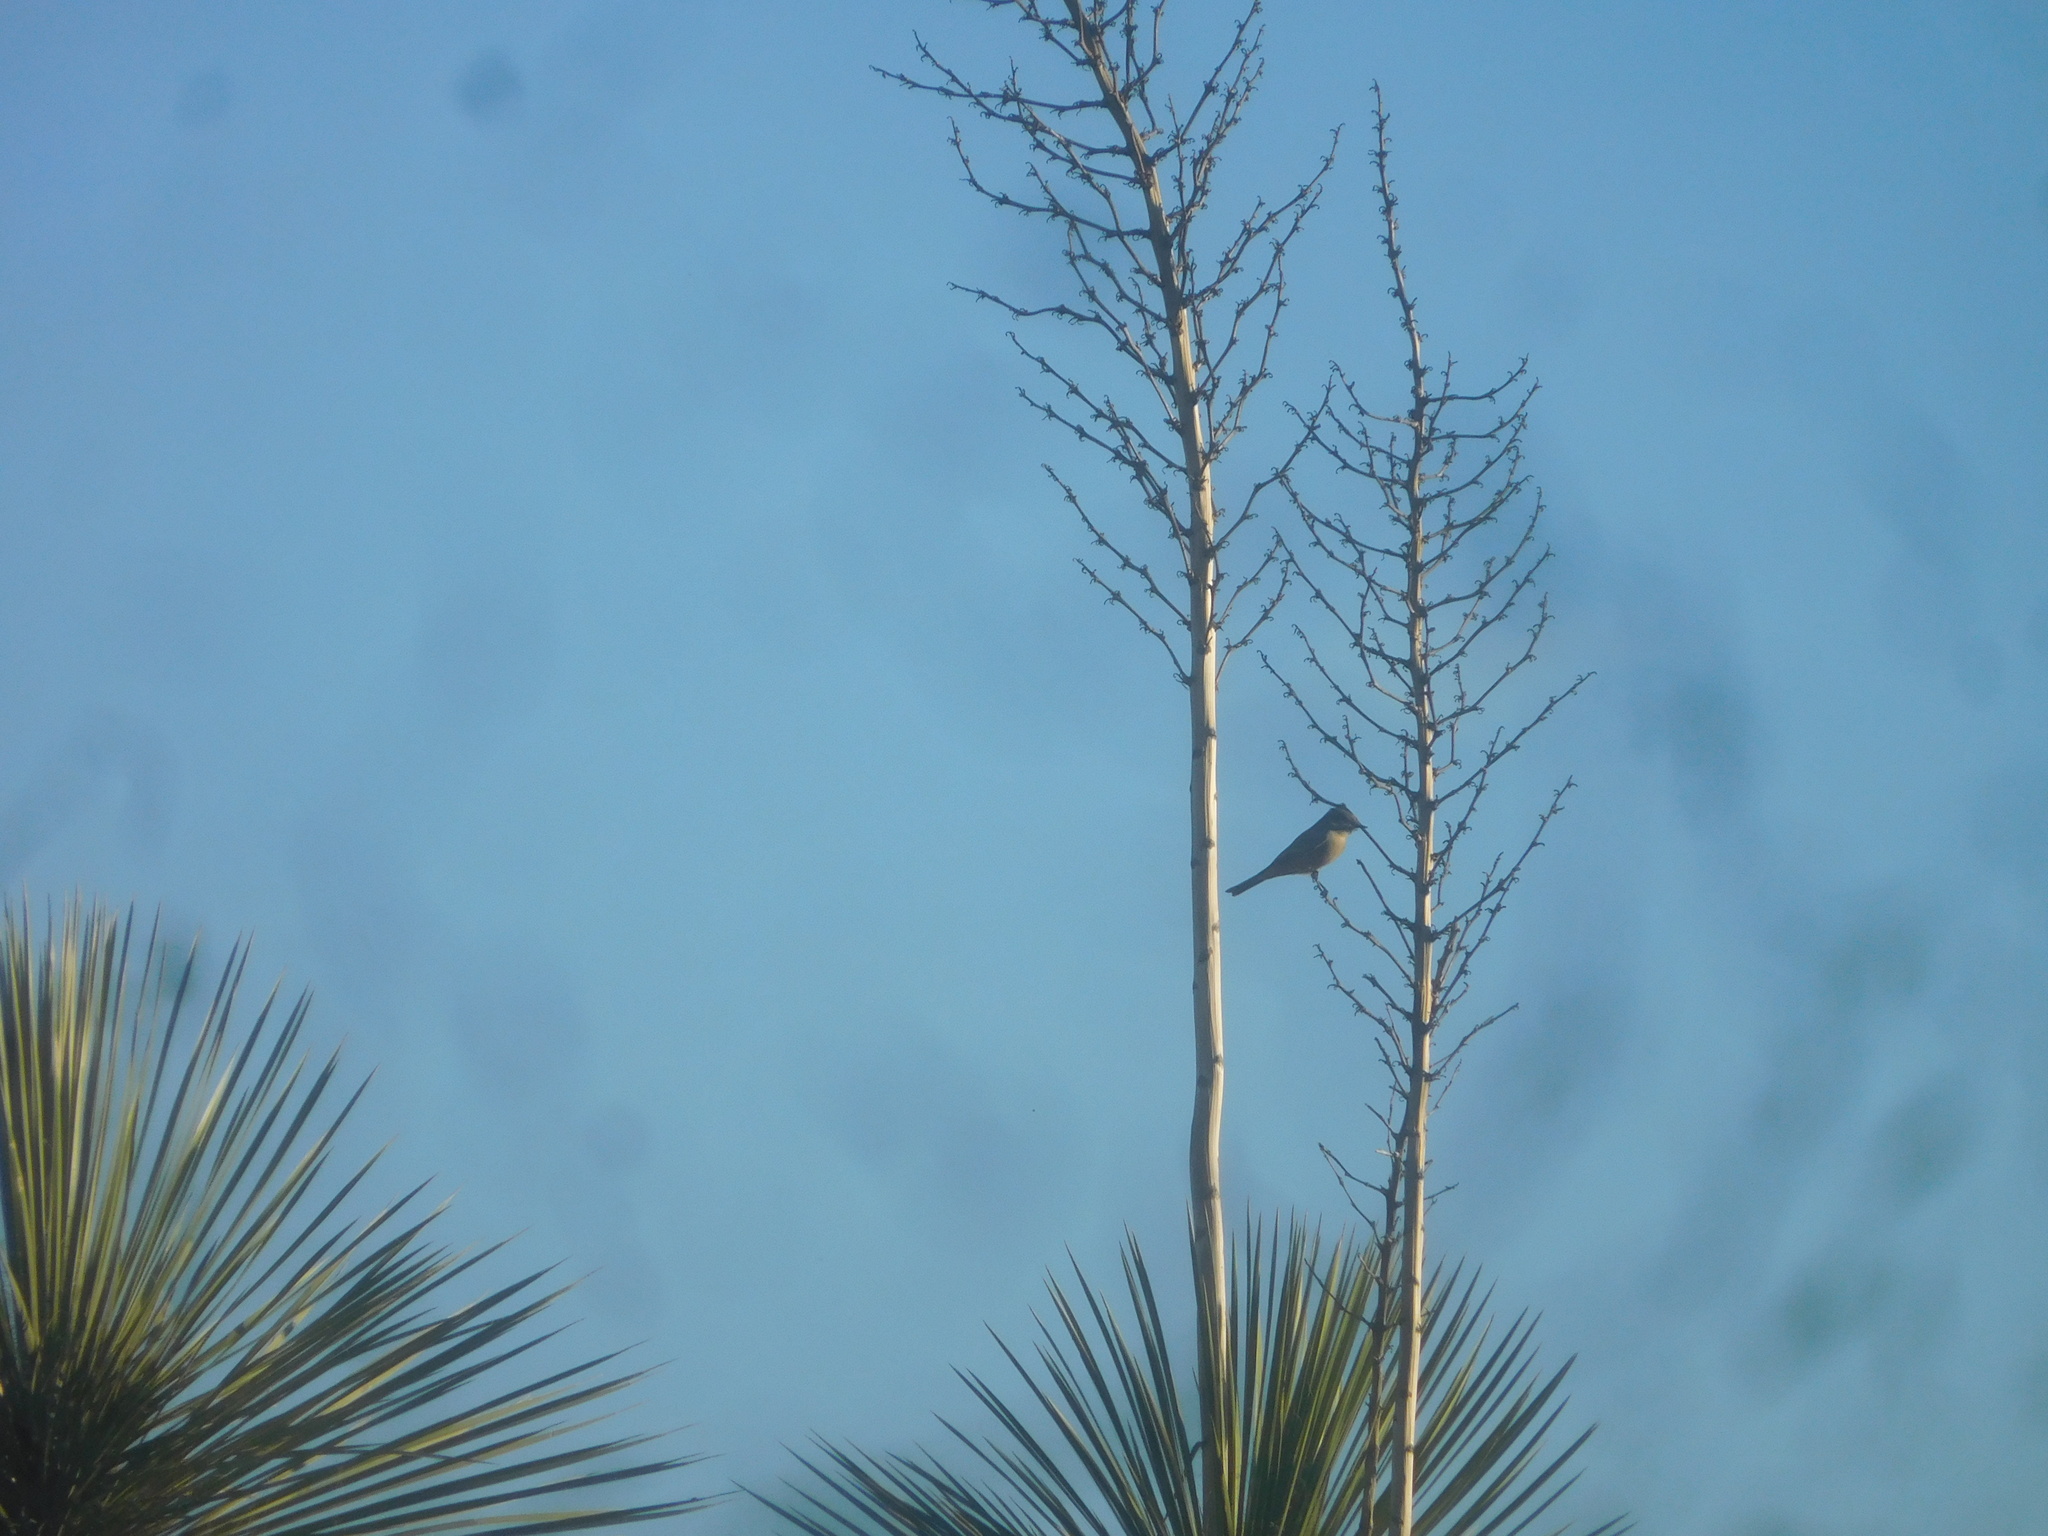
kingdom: Animalia
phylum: Chordata
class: Aves
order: Passeriformes
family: Tyrannidae
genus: Sayornis
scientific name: Sayornis saya
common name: Say's phoebe
